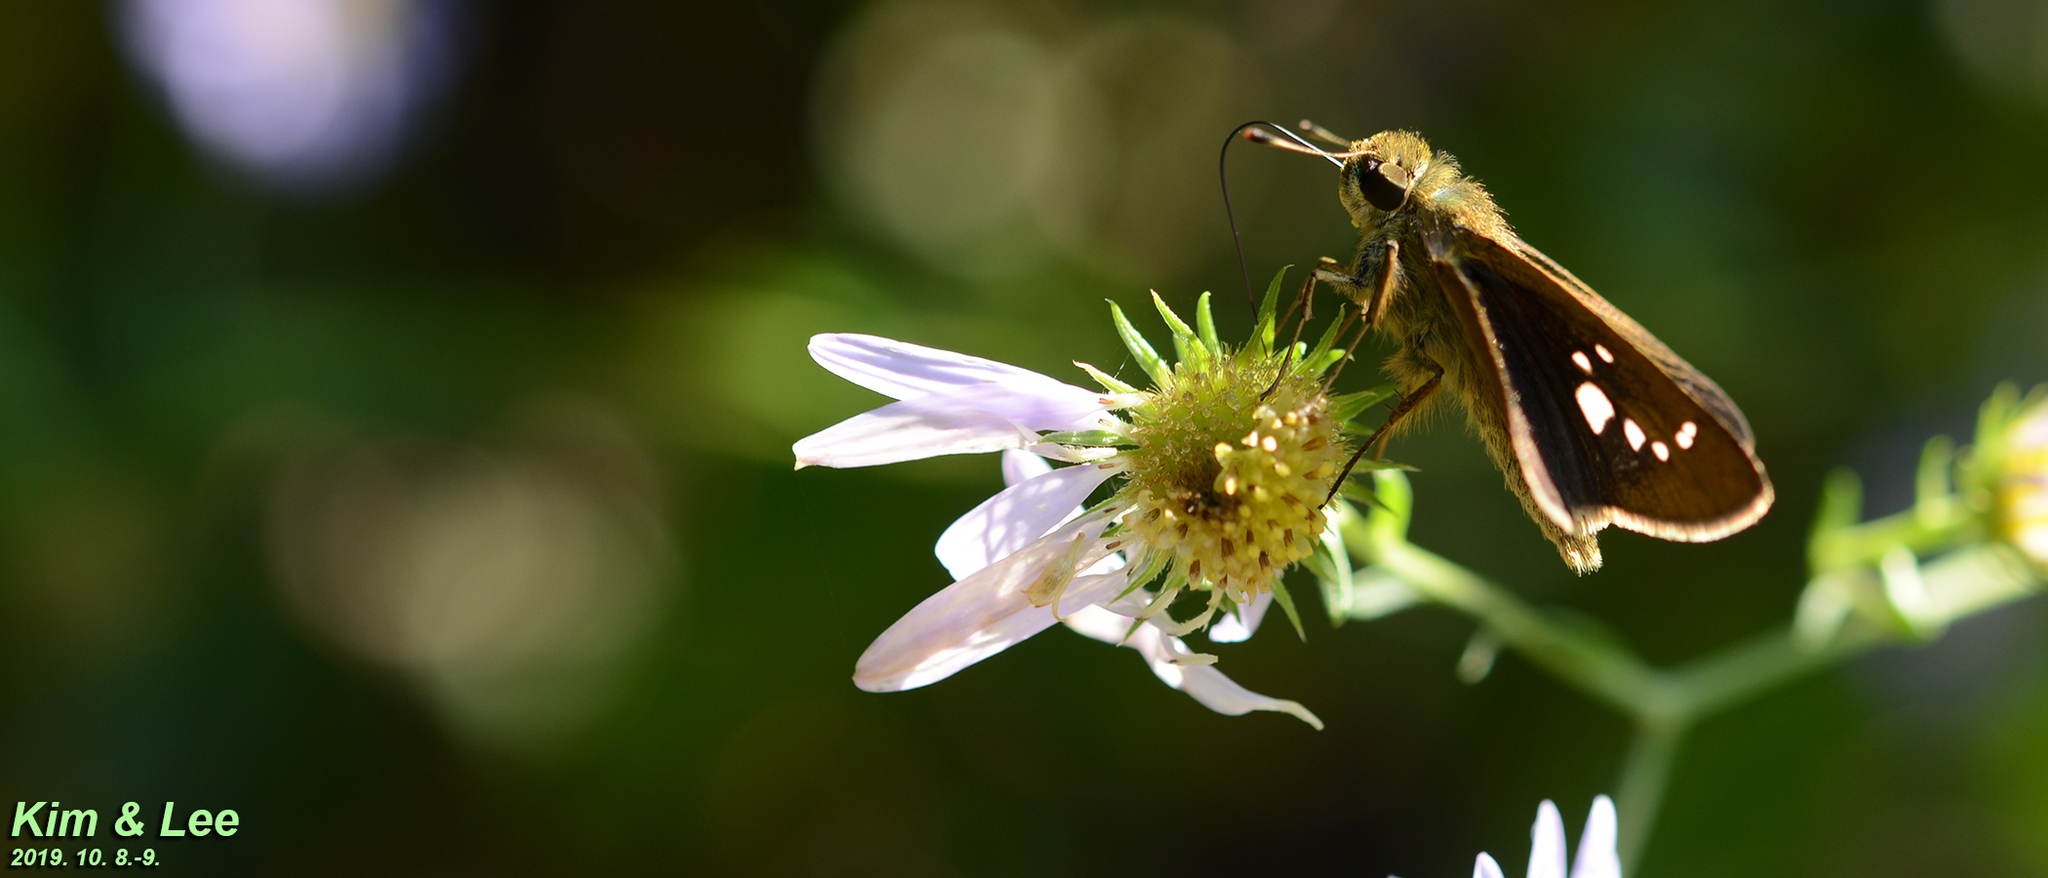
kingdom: Animalia
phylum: Arthropoda
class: Insecta
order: Lepidoptera
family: Hesperiidae
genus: Parnara
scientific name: Parnara guttatus
